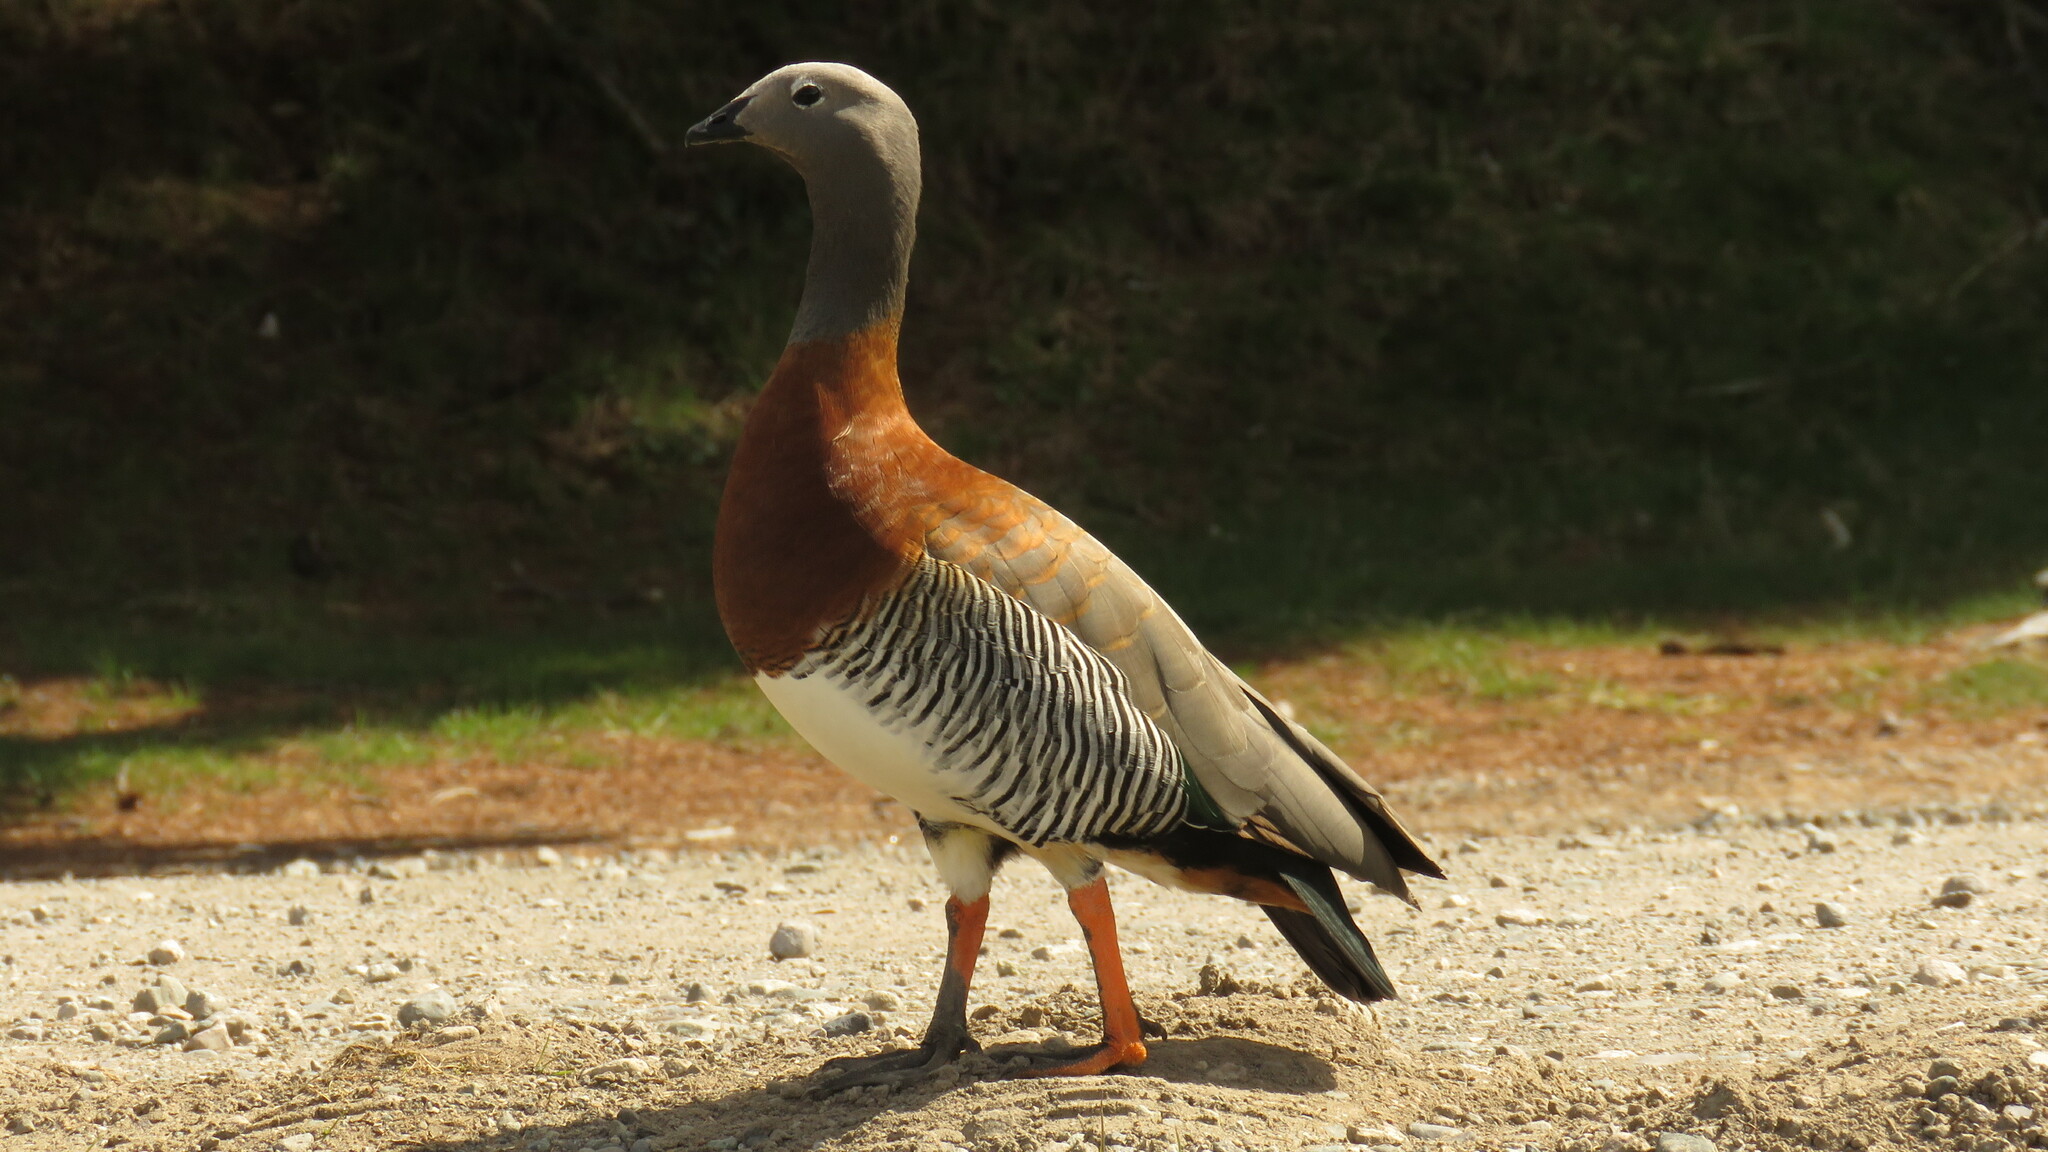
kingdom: Animalia
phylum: Chordata
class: Aves
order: Anseriformes
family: Anatidae
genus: Chloephaga
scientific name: Chloephaga poliocephala
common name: Ashy-headed goose
